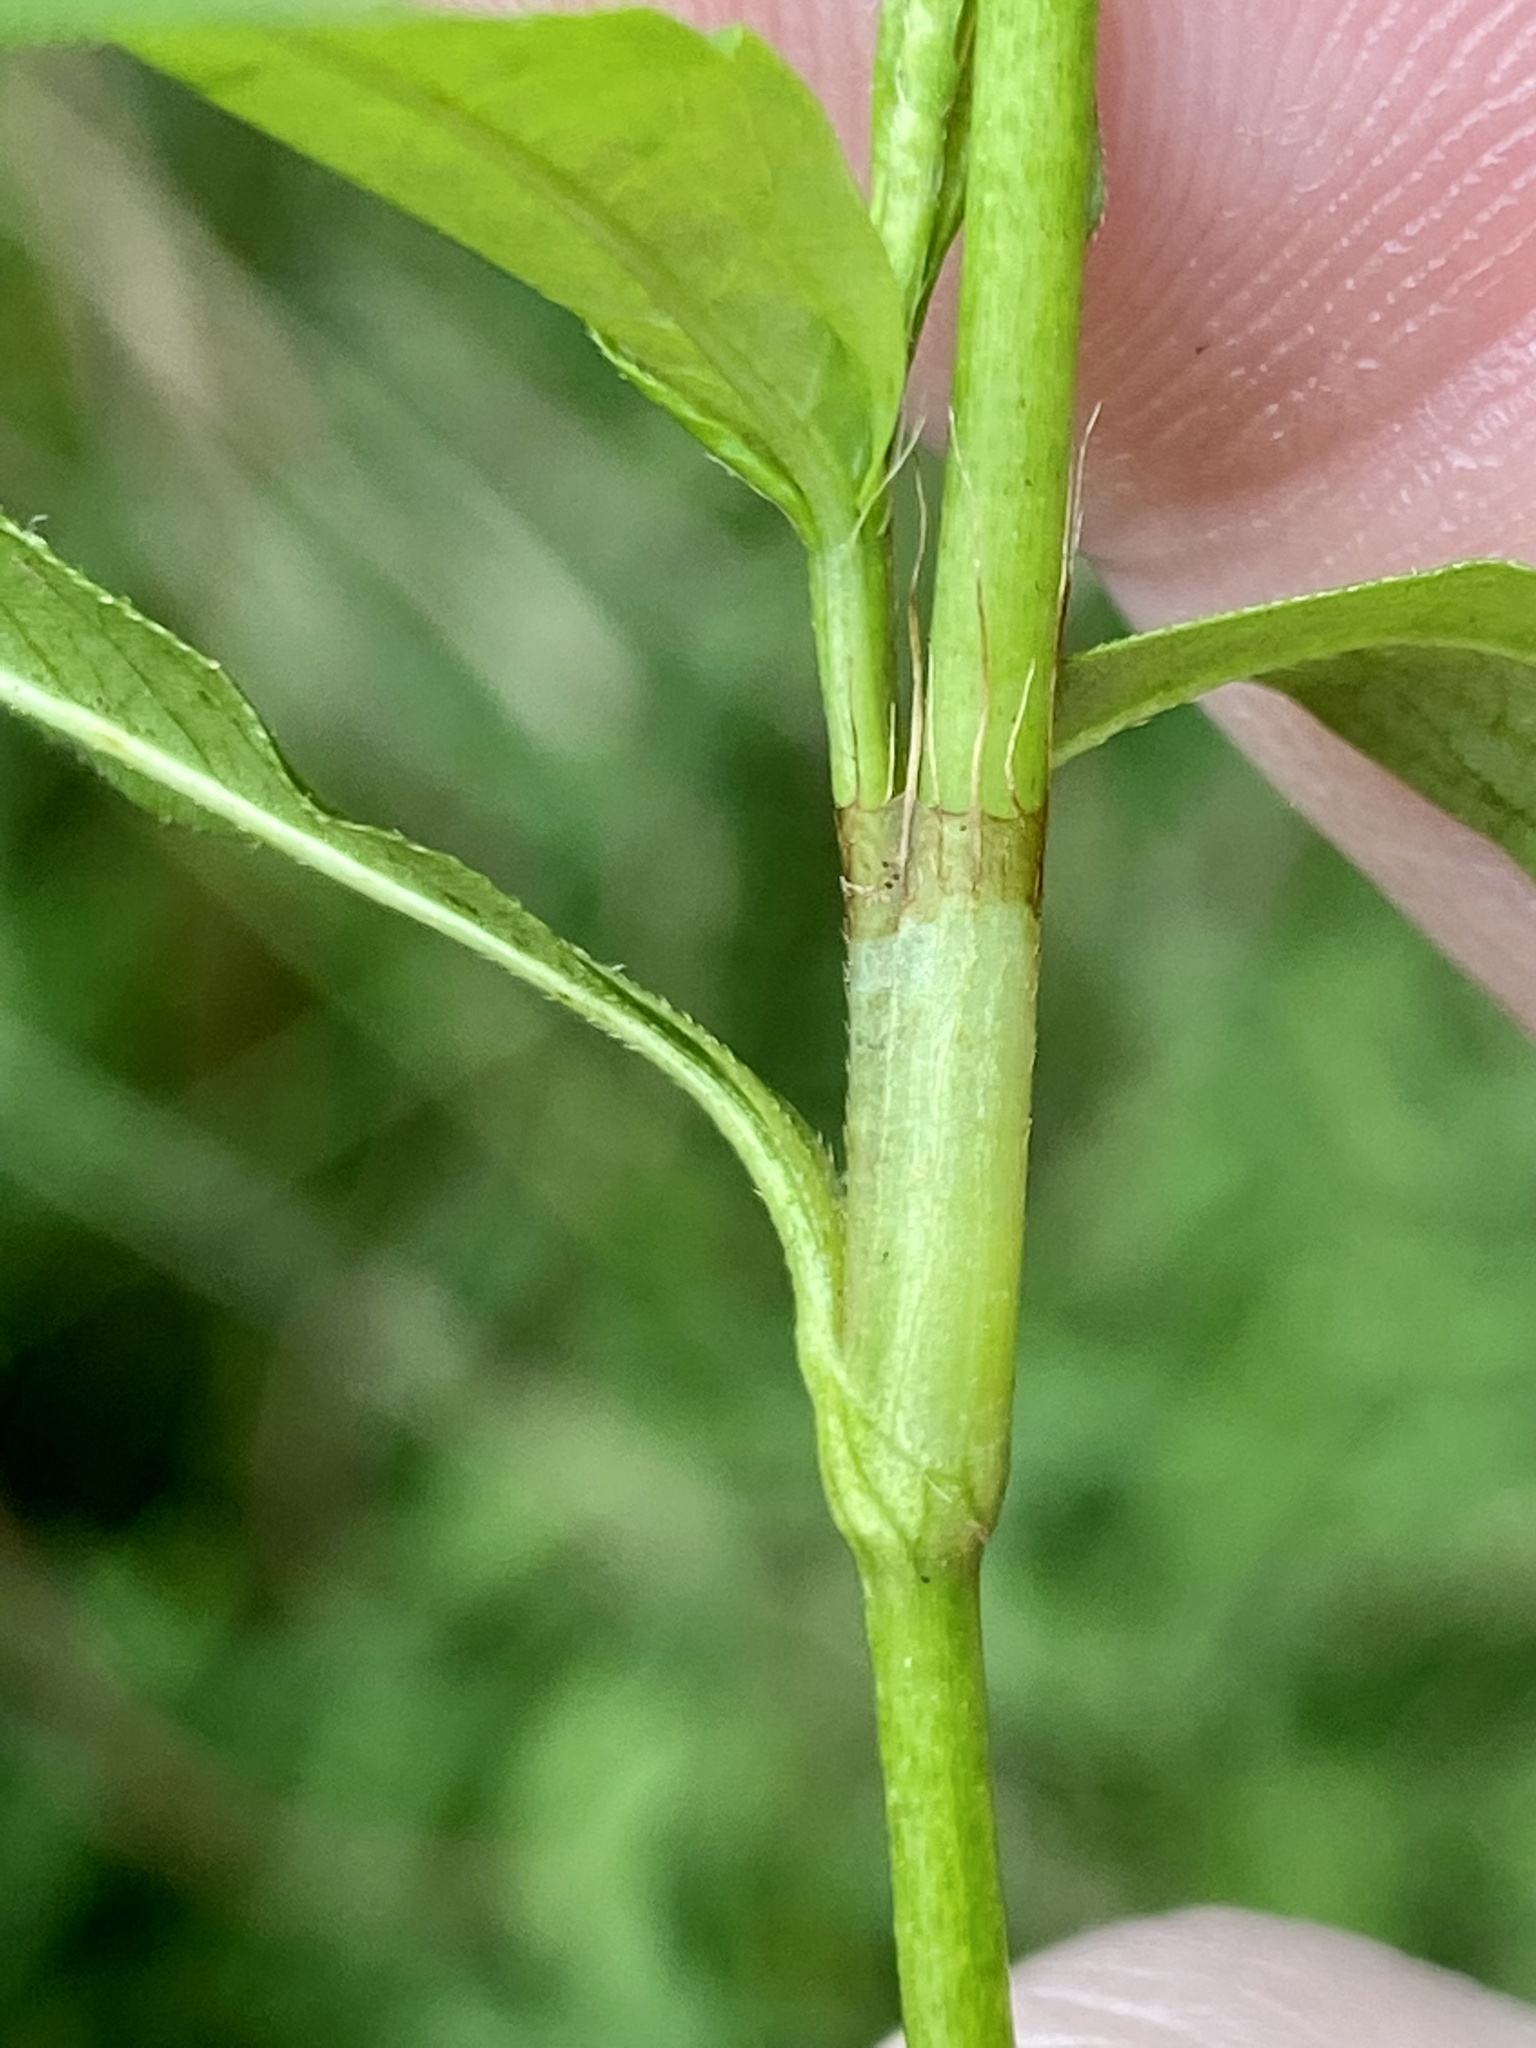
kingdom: Plantae
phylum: Tracheophyta
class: Magnoliopsida
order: Caryophyllales
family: Polygonaceae
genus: Persicaria
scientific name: Persicaria punctata
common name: Dotted smartweed
